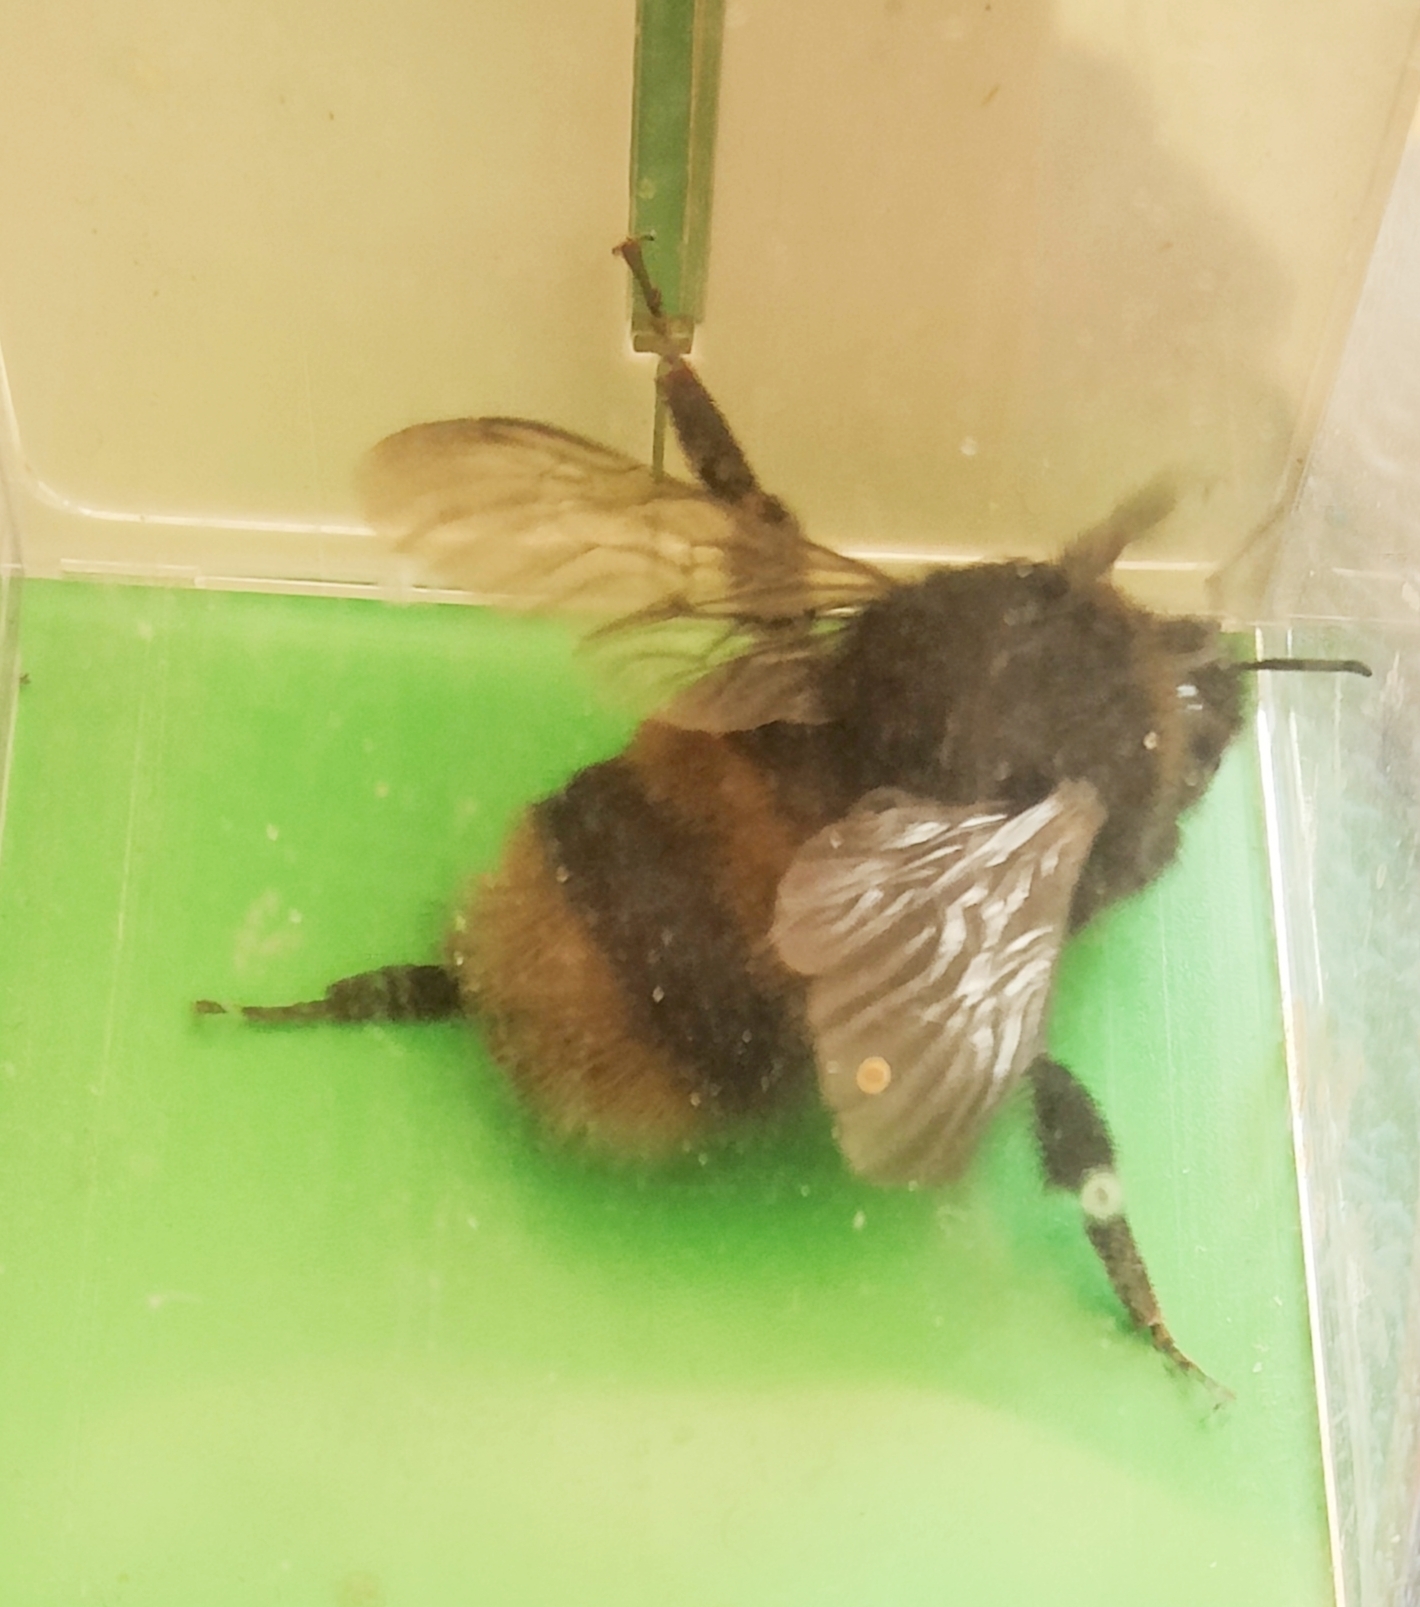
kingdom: Animalia
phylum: Arthropoda
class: Insecta
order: Hymenoptera
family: Apidae
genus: Bombus
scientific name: Bombus terrestris
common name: Buff-tailed bumblebee
